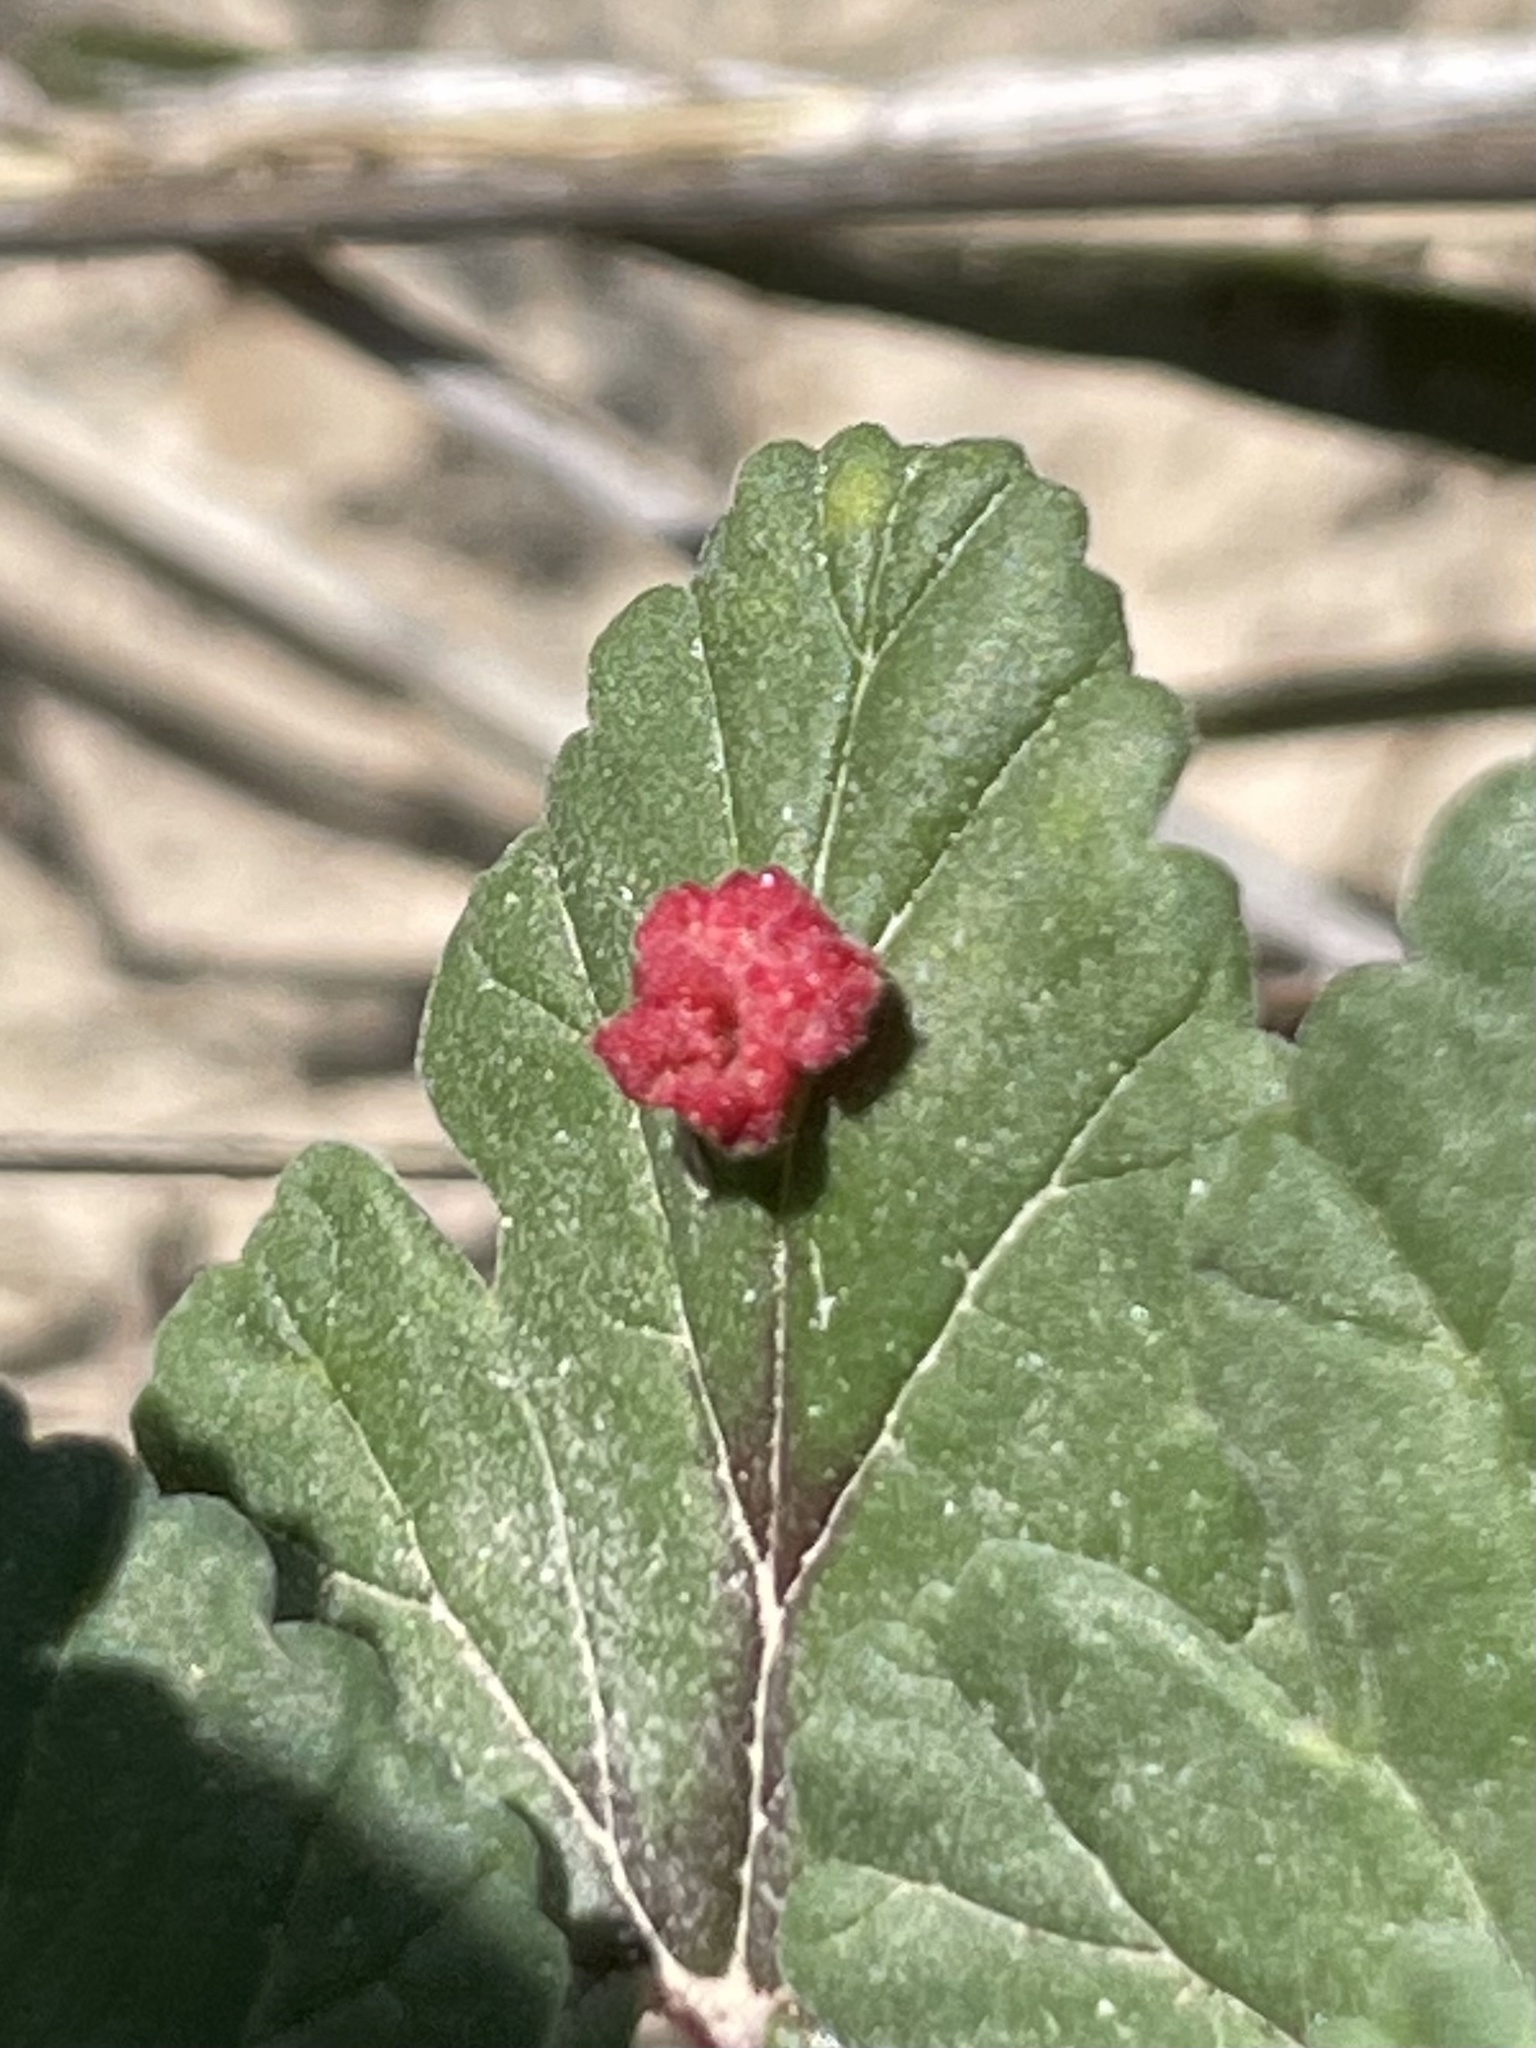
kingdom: Plantae
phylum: Tracheophyta
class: Magnoliopsida
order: Geraniales
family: Geraniaceae
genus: Erodium
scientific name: Erodium texanum
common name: Texas stork's-bill
